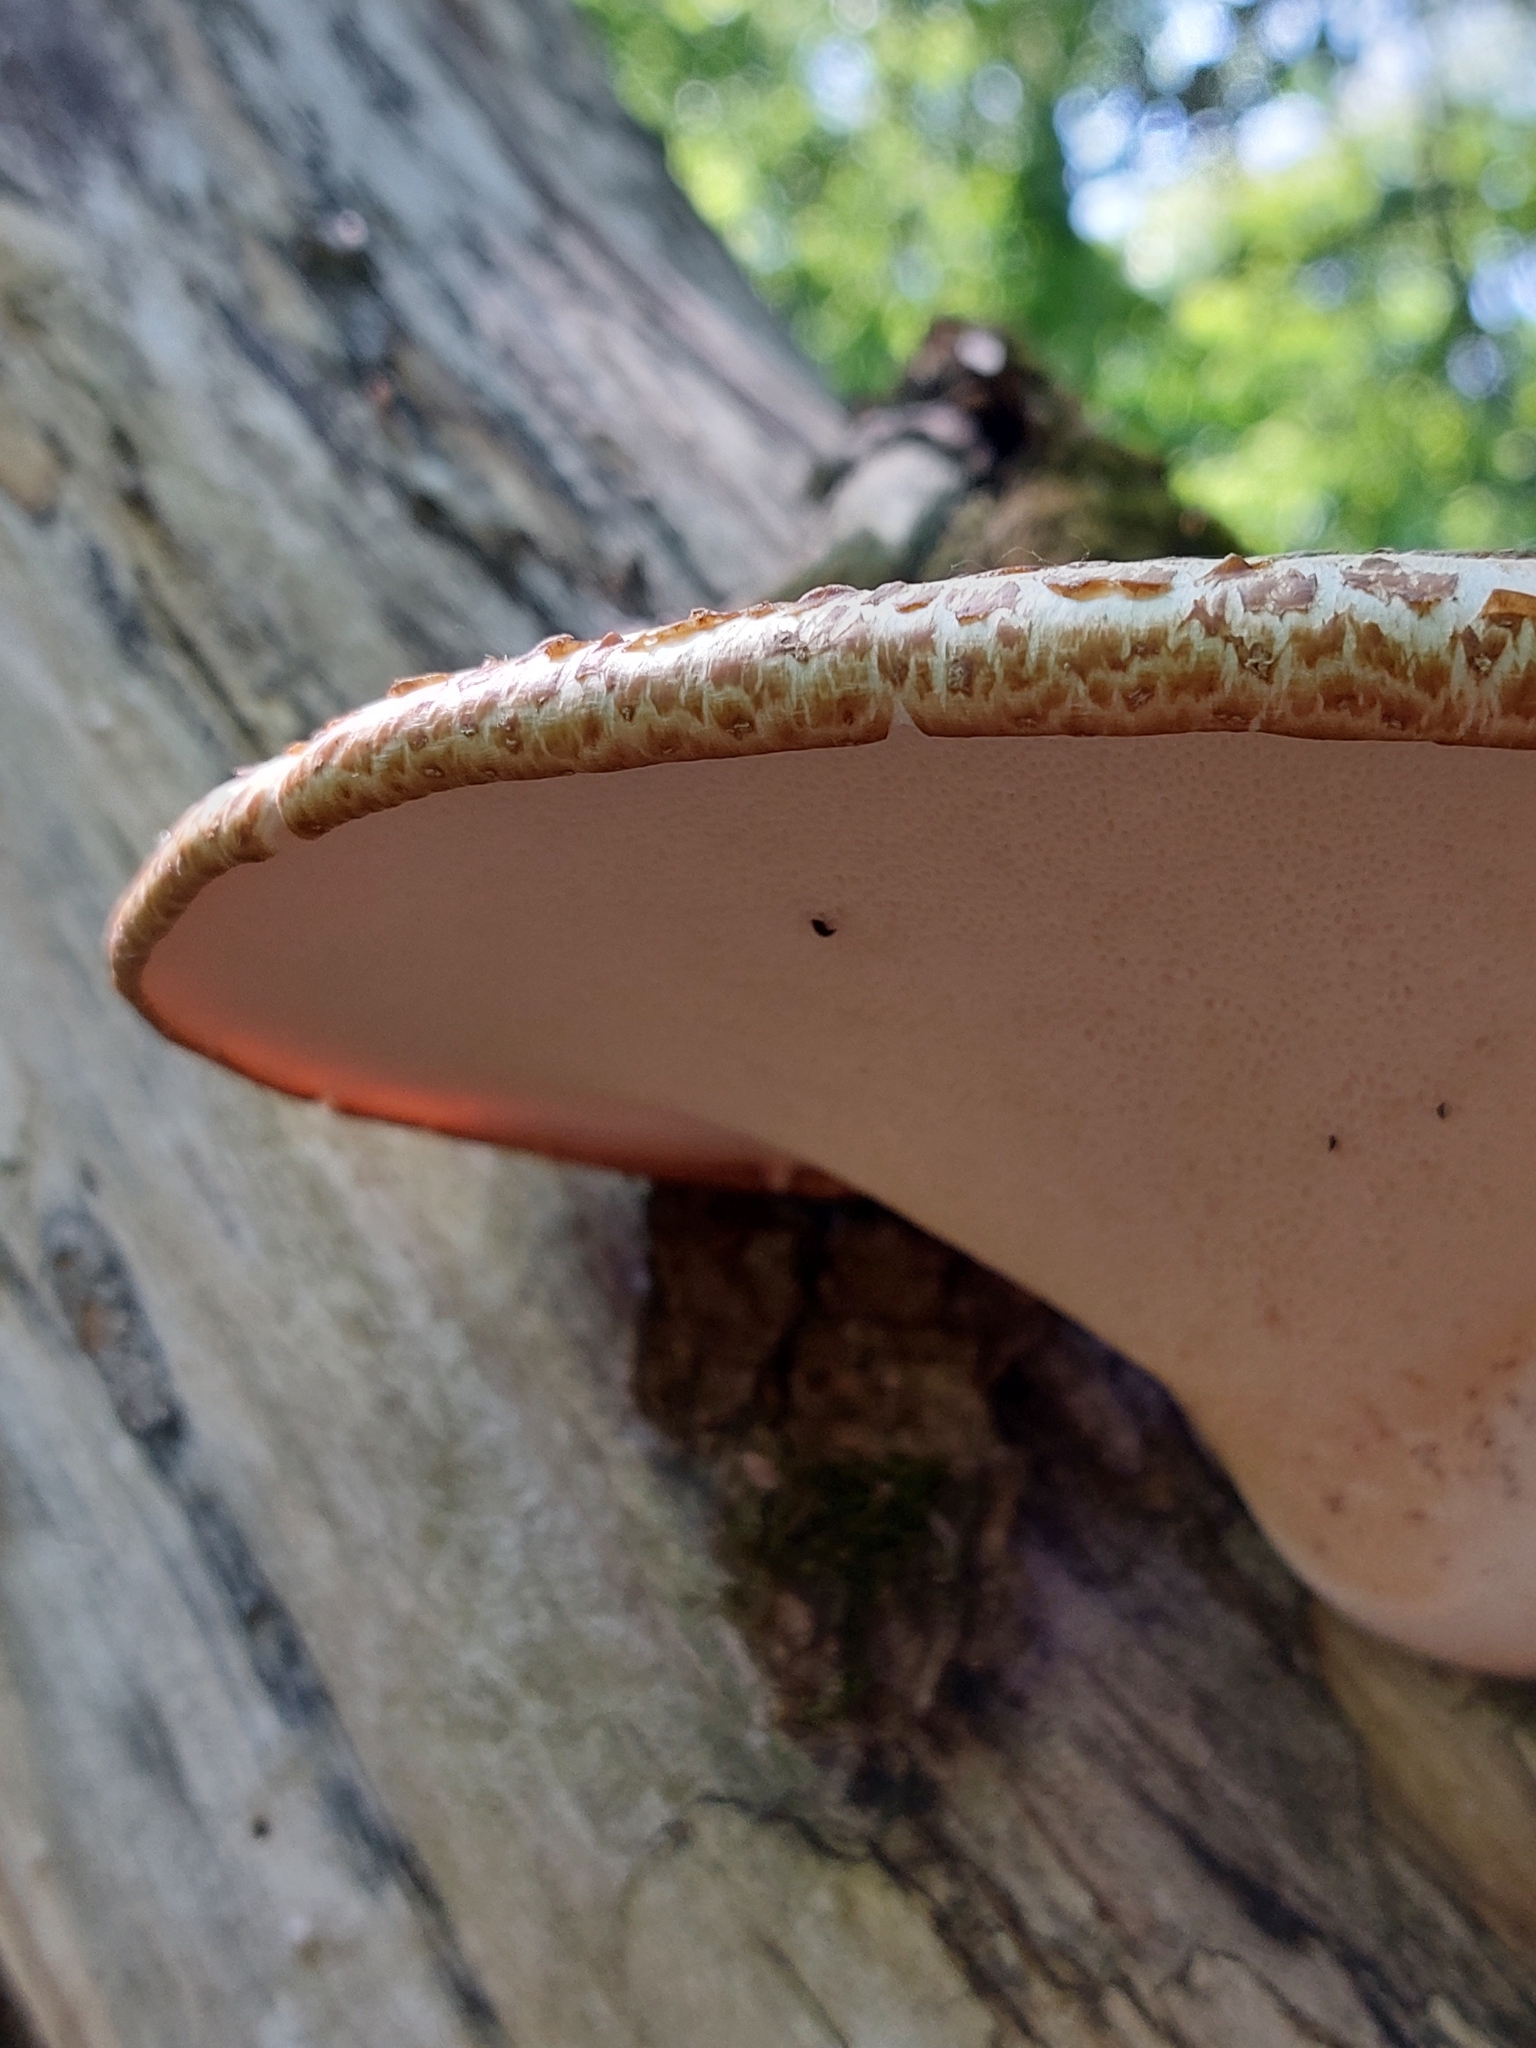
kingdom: Fungi
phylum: Basidiomycota
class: Agaricomycetes
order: Polyporales
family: Polyporaceae
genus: Cerioporus
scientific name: Cerioporus squamosus
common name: Dryad's saddle
